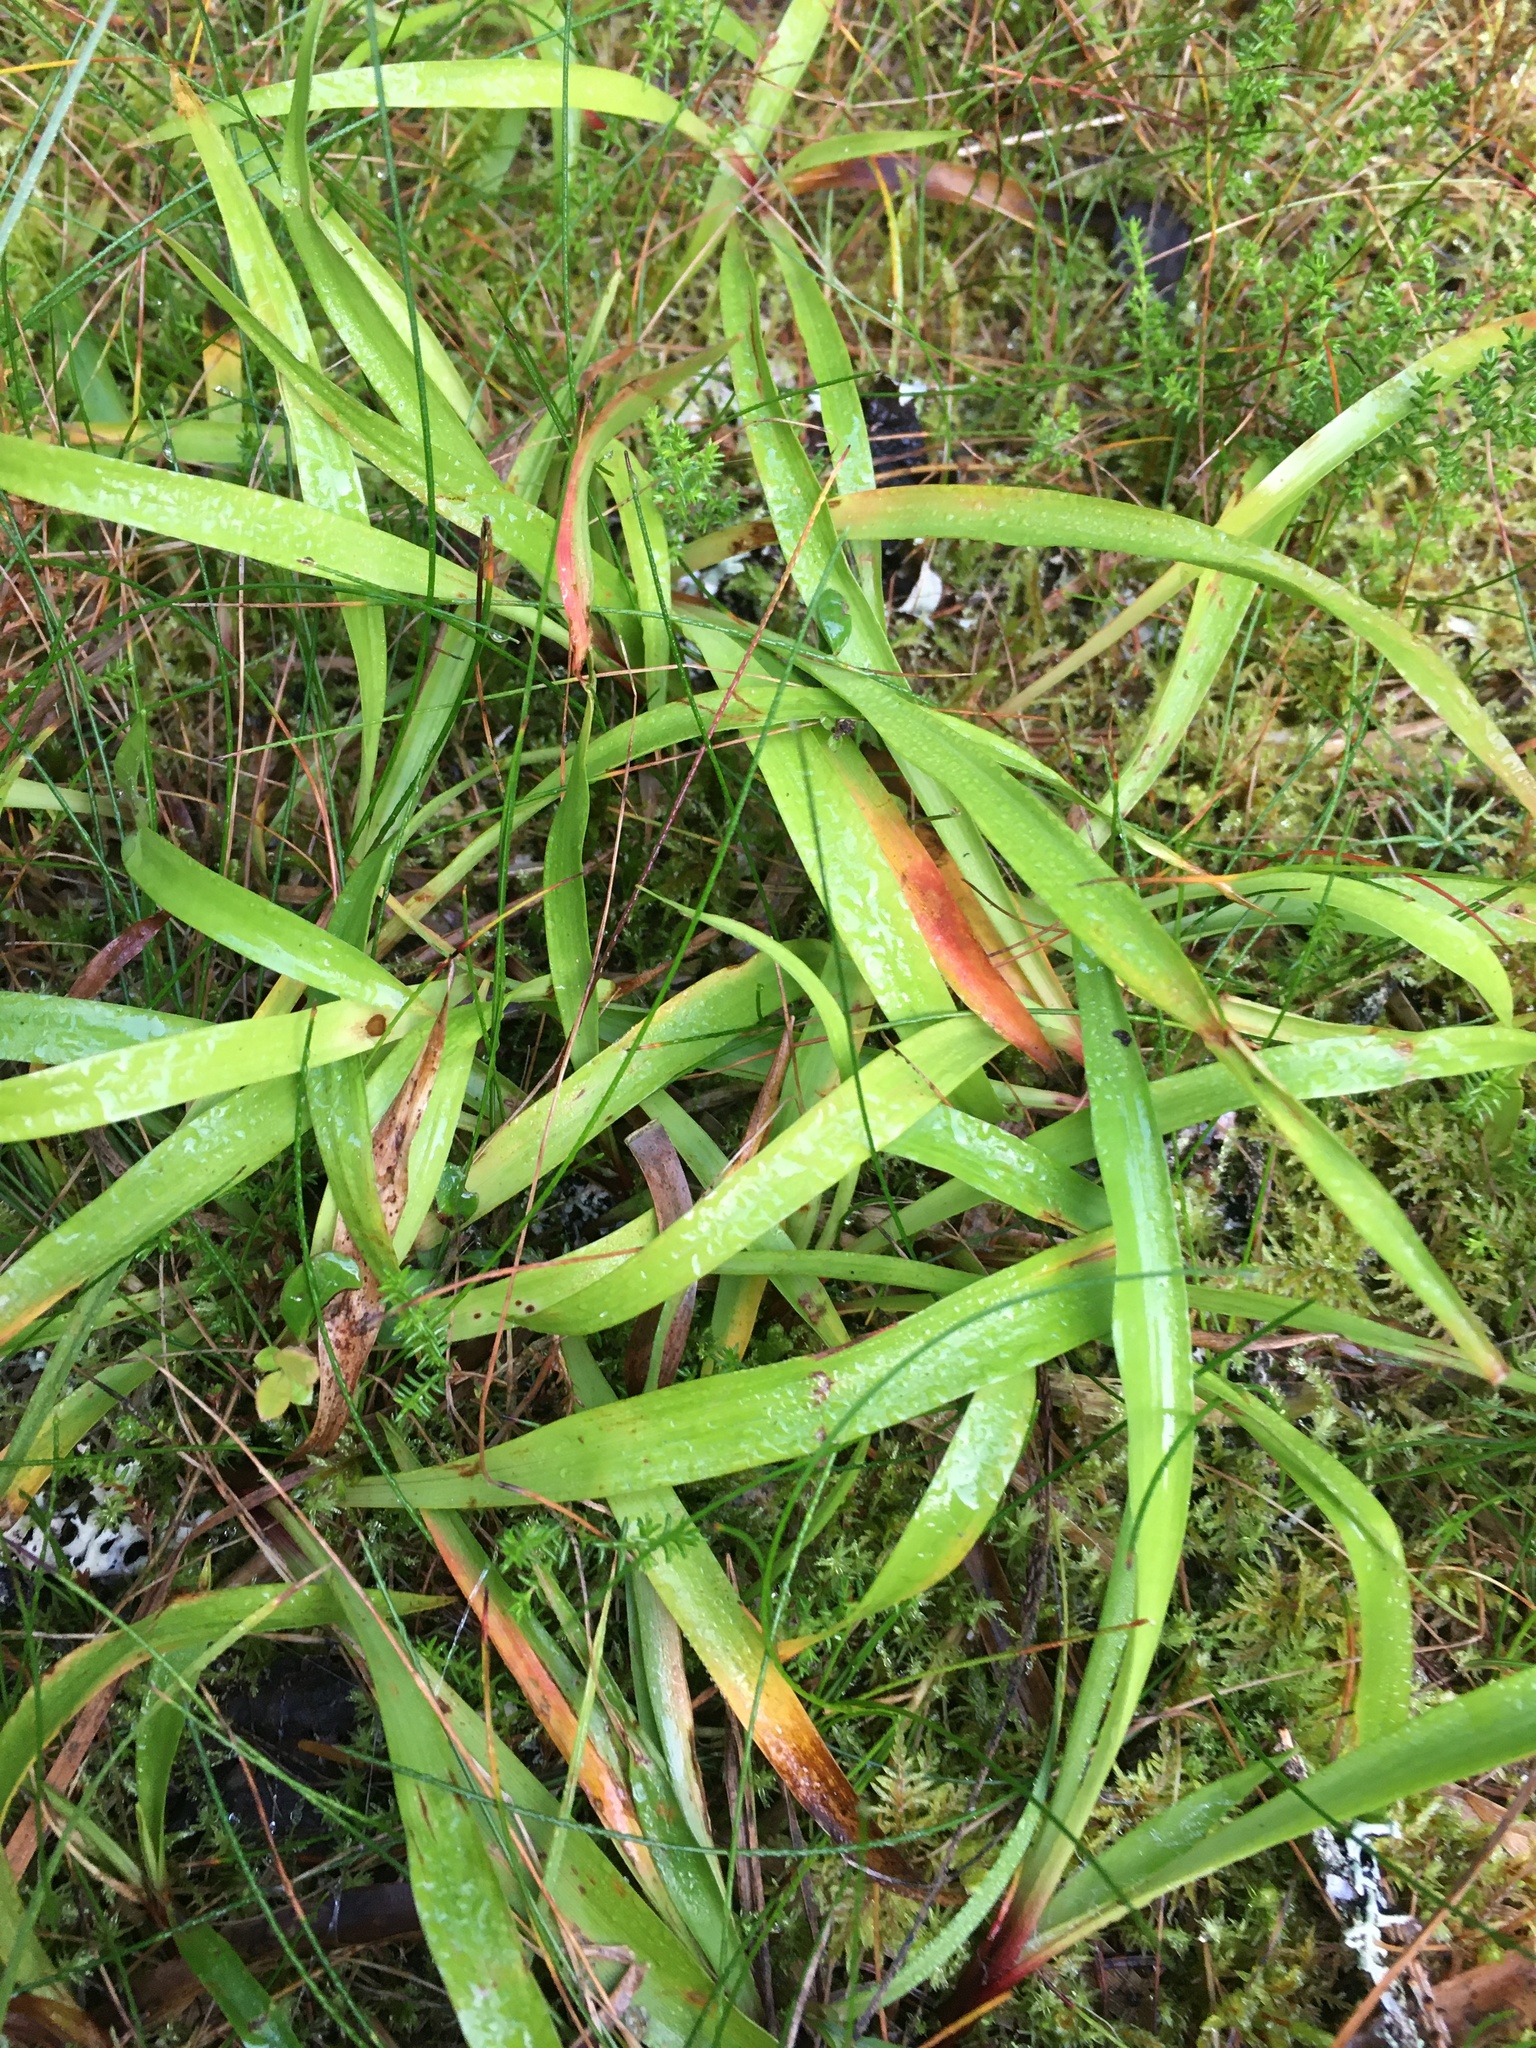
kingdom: Plantae
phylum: Tracheophyta
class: Liliopsida
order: Poales
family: Juncaceae
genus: Luzula
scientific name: Luzula pilosa
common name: Hairy wood-rush
